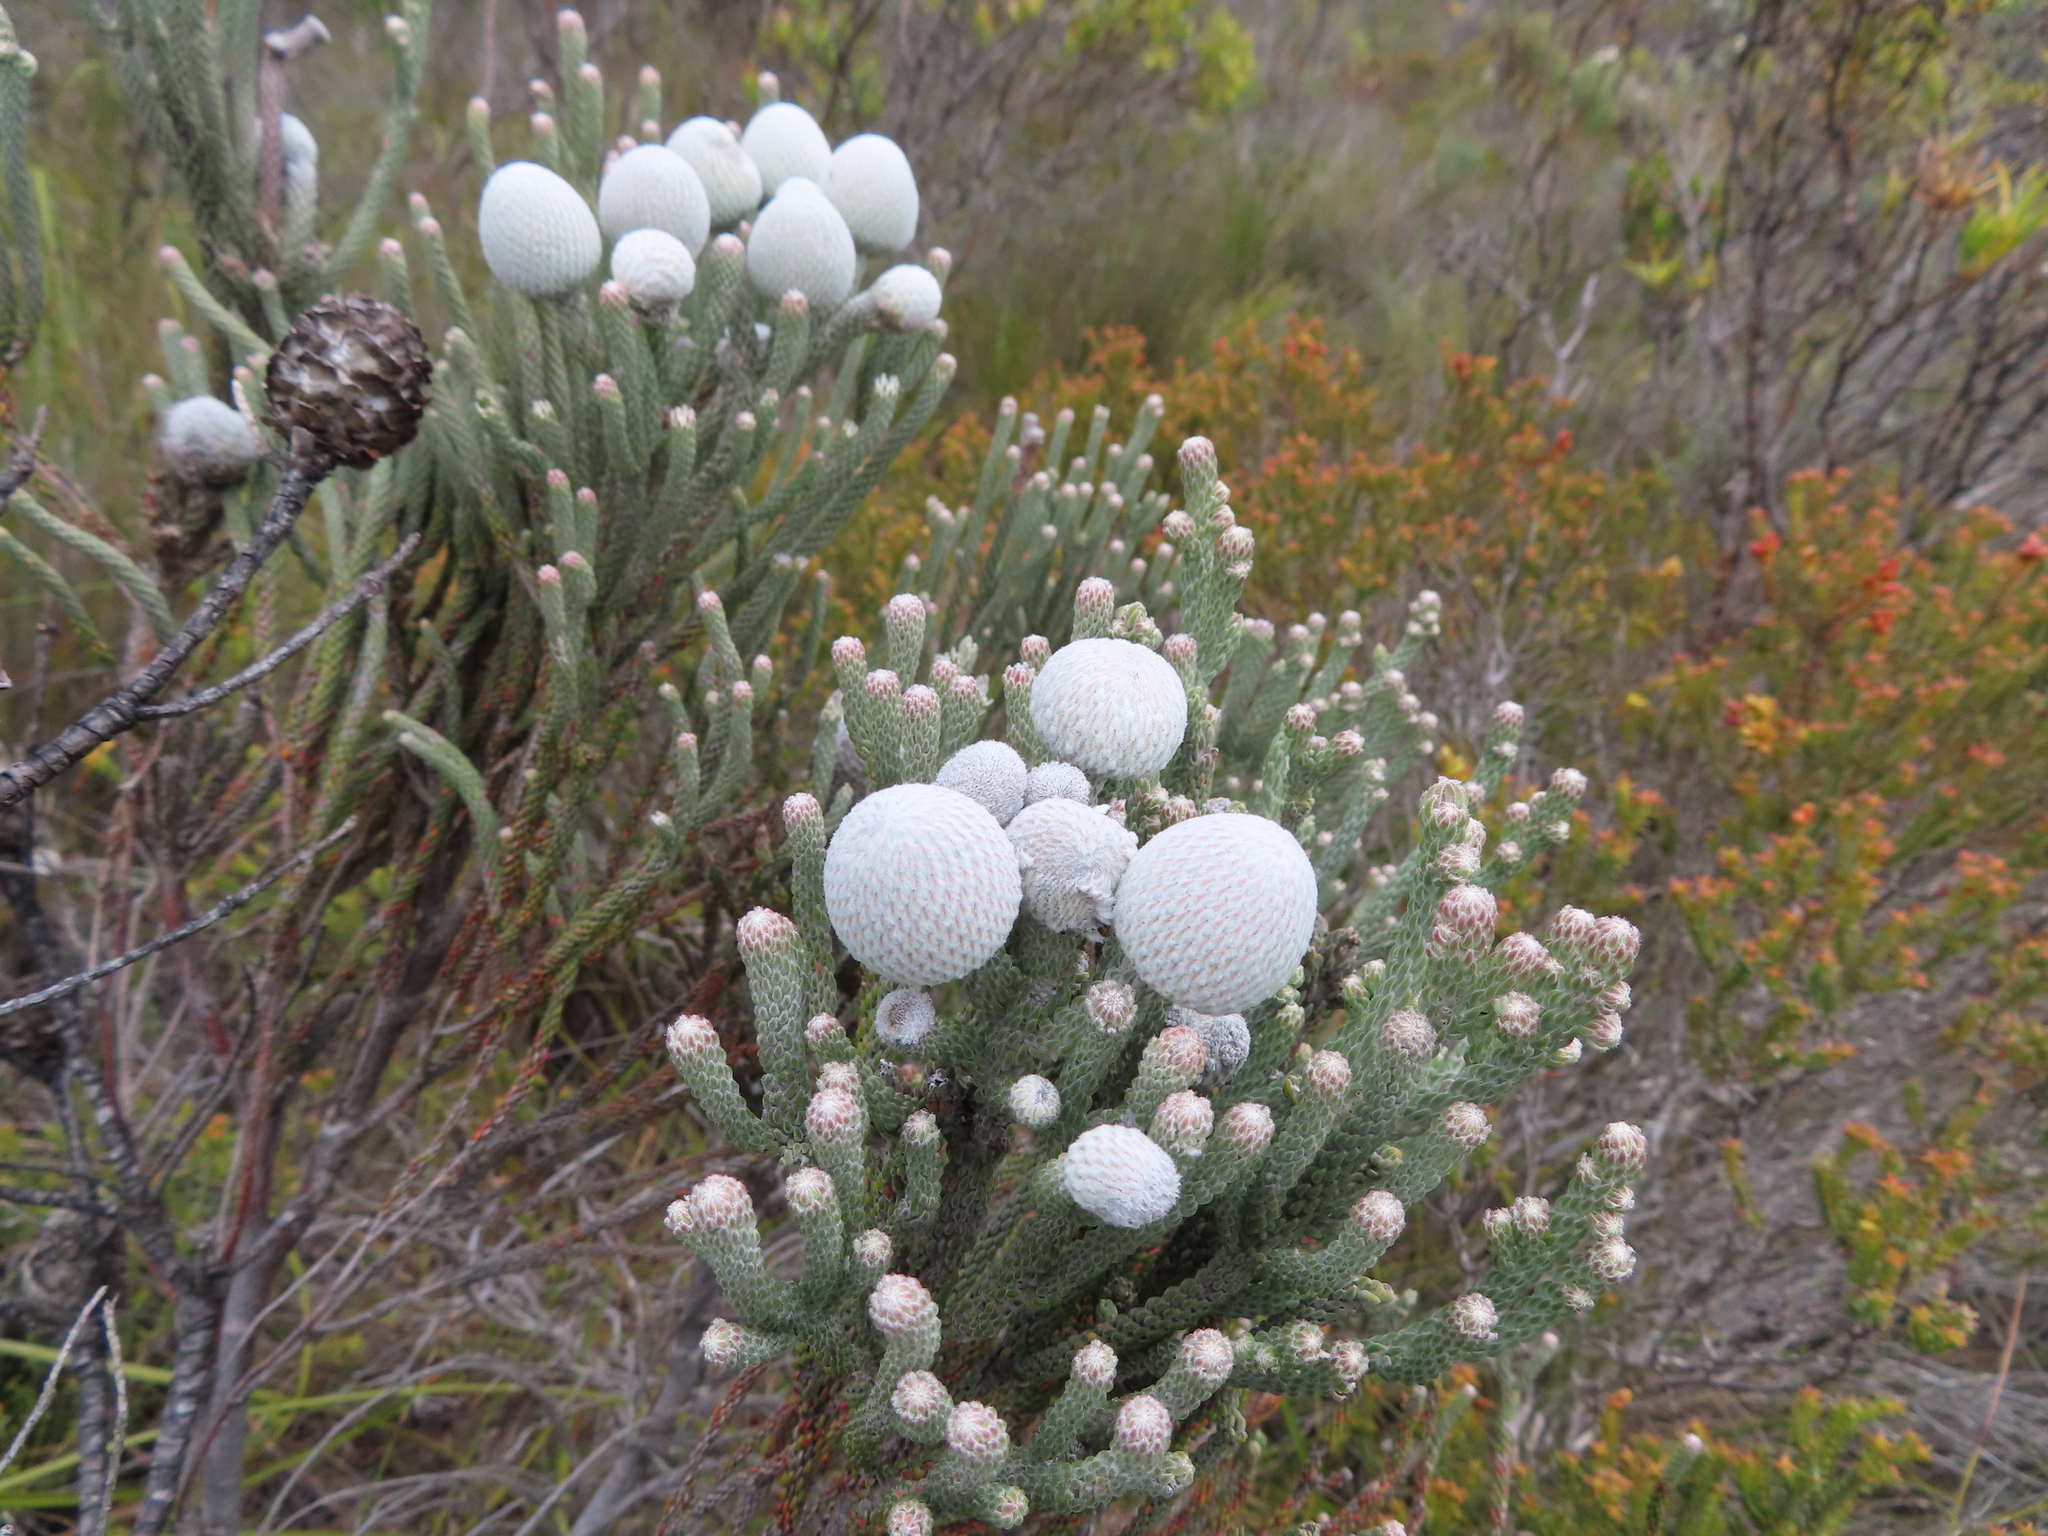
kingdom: Plantae
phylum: Tracheophyta
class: Magnoliopsida
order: Bruniales
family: Bruniaceae
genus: Brunia
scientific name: Brunia laevis
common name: Silver brunia
